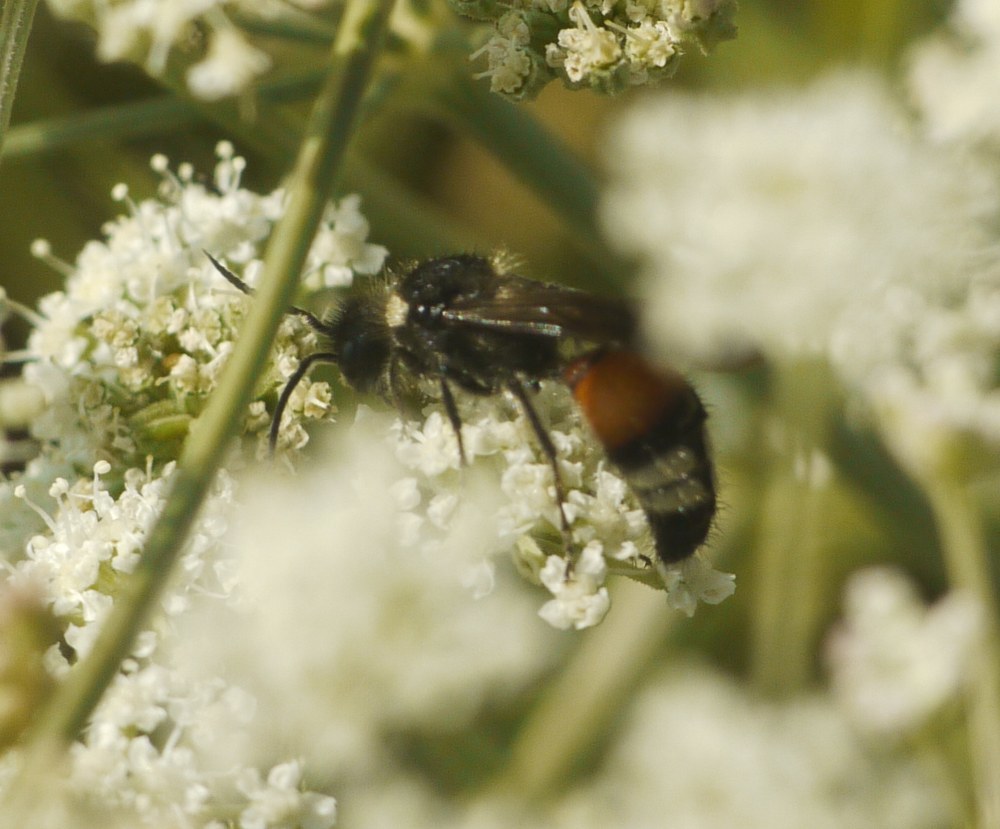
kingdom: Animalia
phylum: Arthropoda
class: Insecta
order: Hymenoptera
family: Mutillidae
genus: Trogaspidia
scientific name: Trogaspidia catanensis
